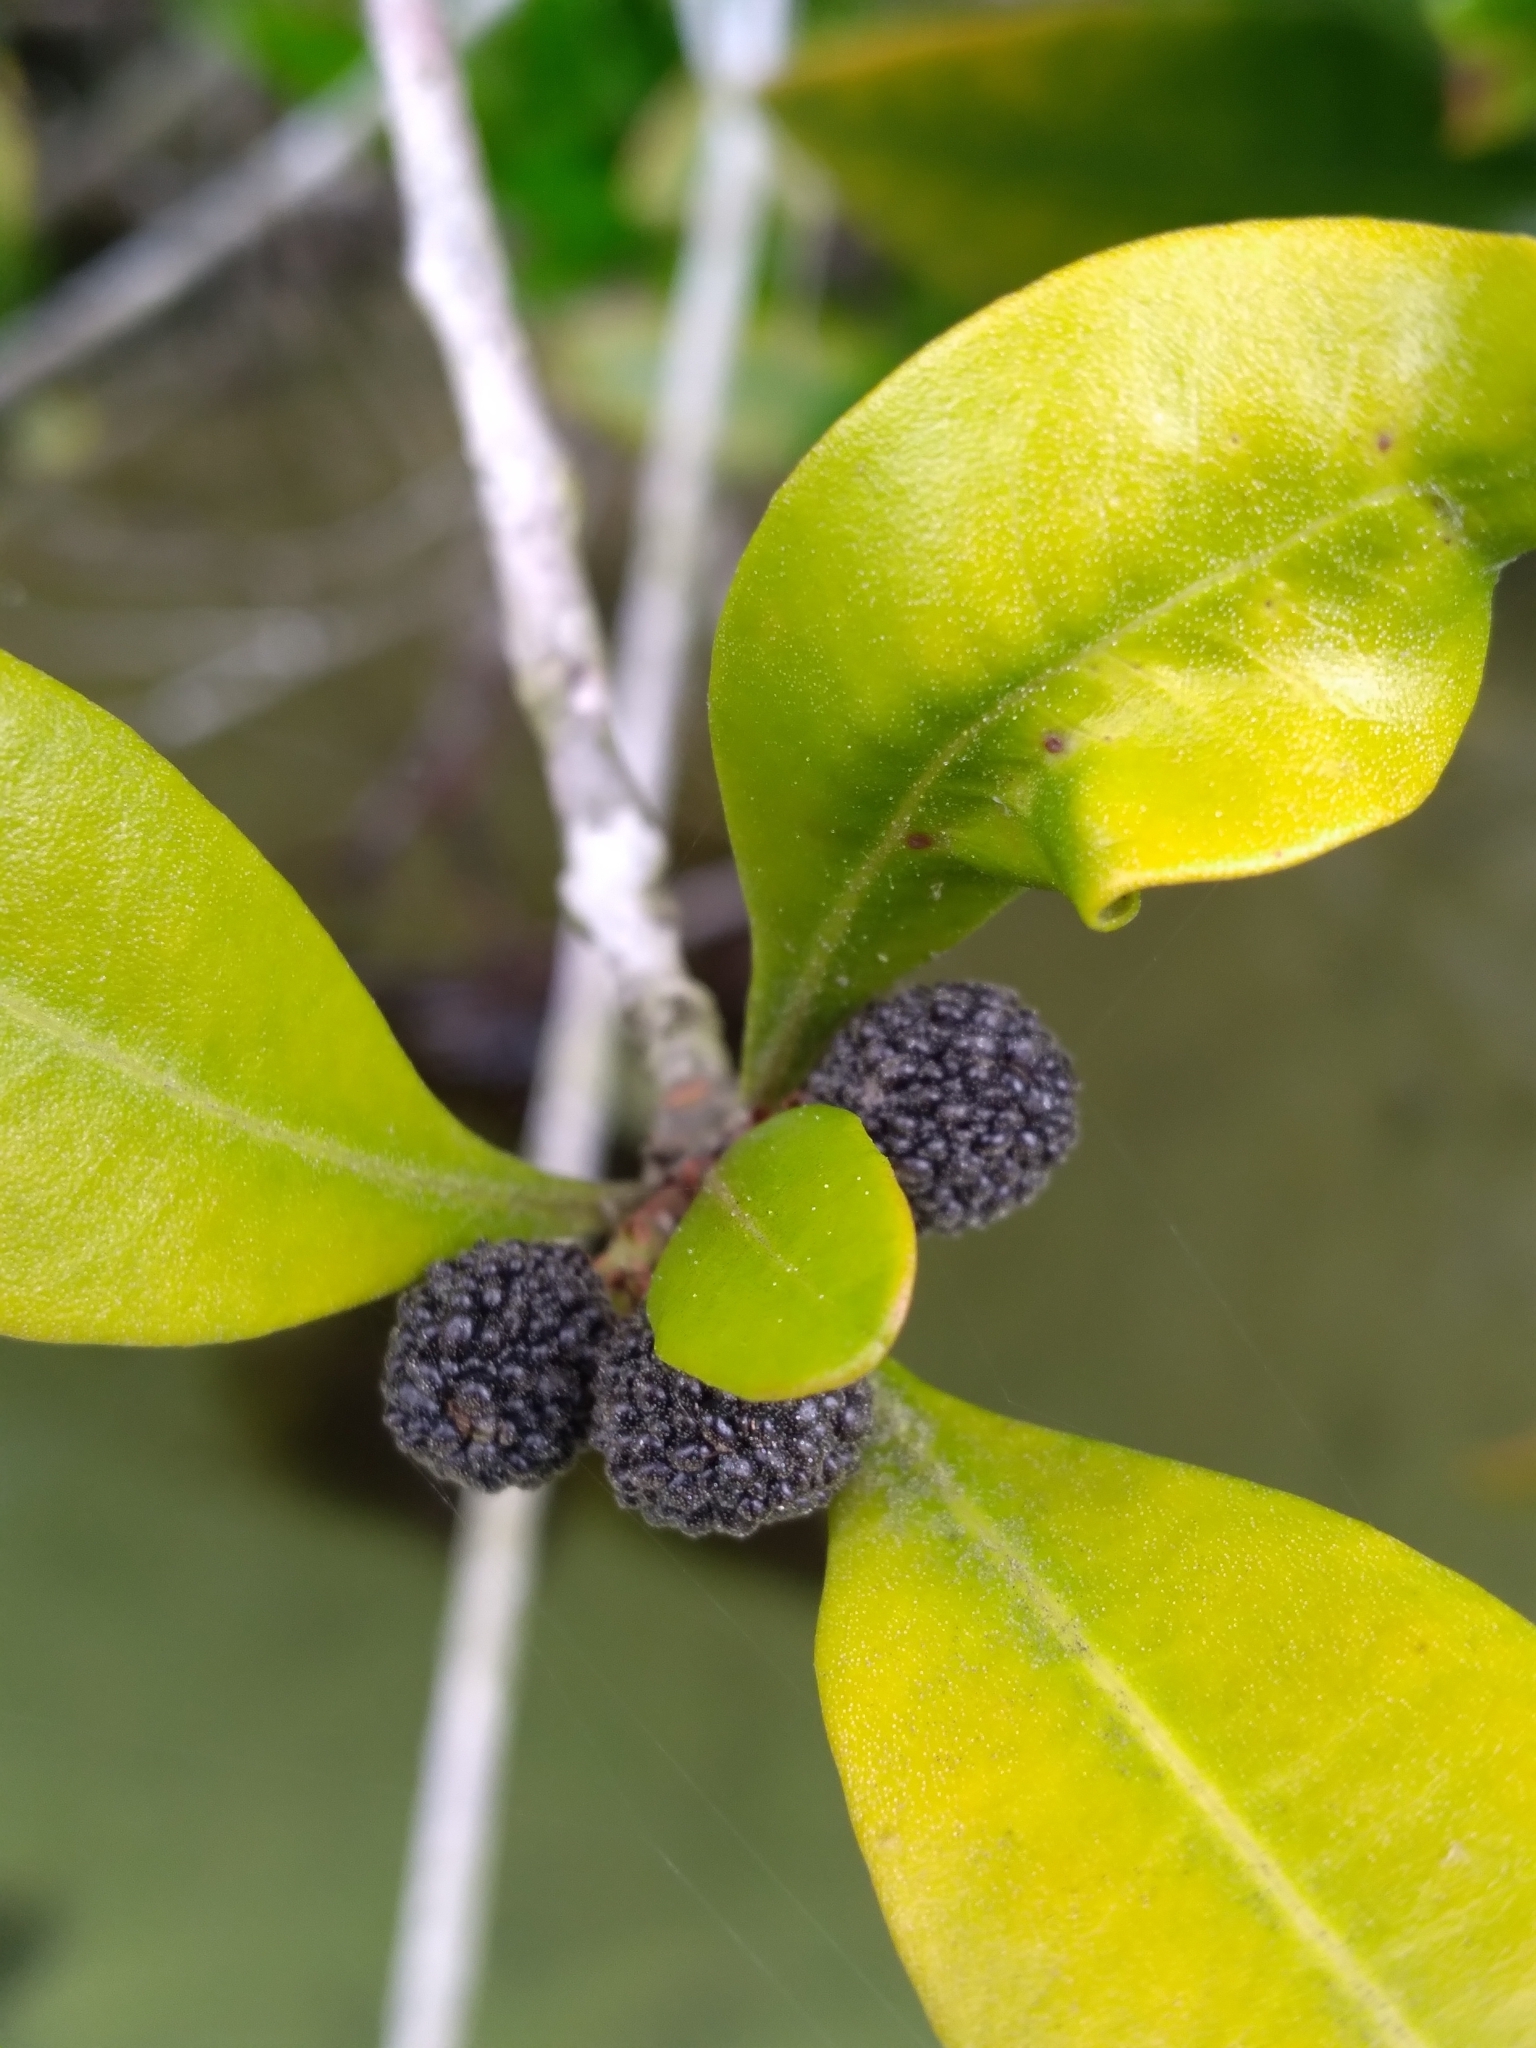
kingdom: Plantae
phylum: Tracheophyta
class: Magnoliopsida
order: Fagales
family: Myricaceae
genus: Morella
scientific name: Morella inodora
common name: Candle-berry
